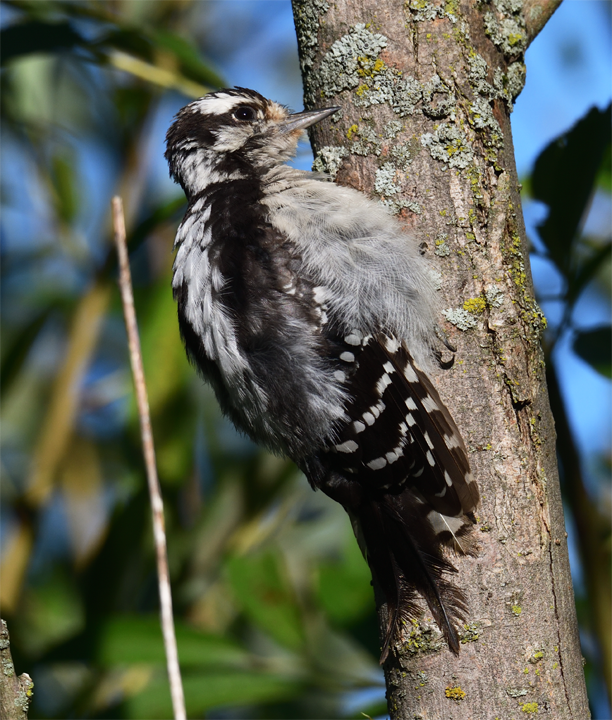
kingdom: Animalia
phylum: Chordata
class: Aves
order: Piciformes
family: Picidae
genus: Dryobates
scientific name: Dryobates pubescens
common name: Downy woodpecker
